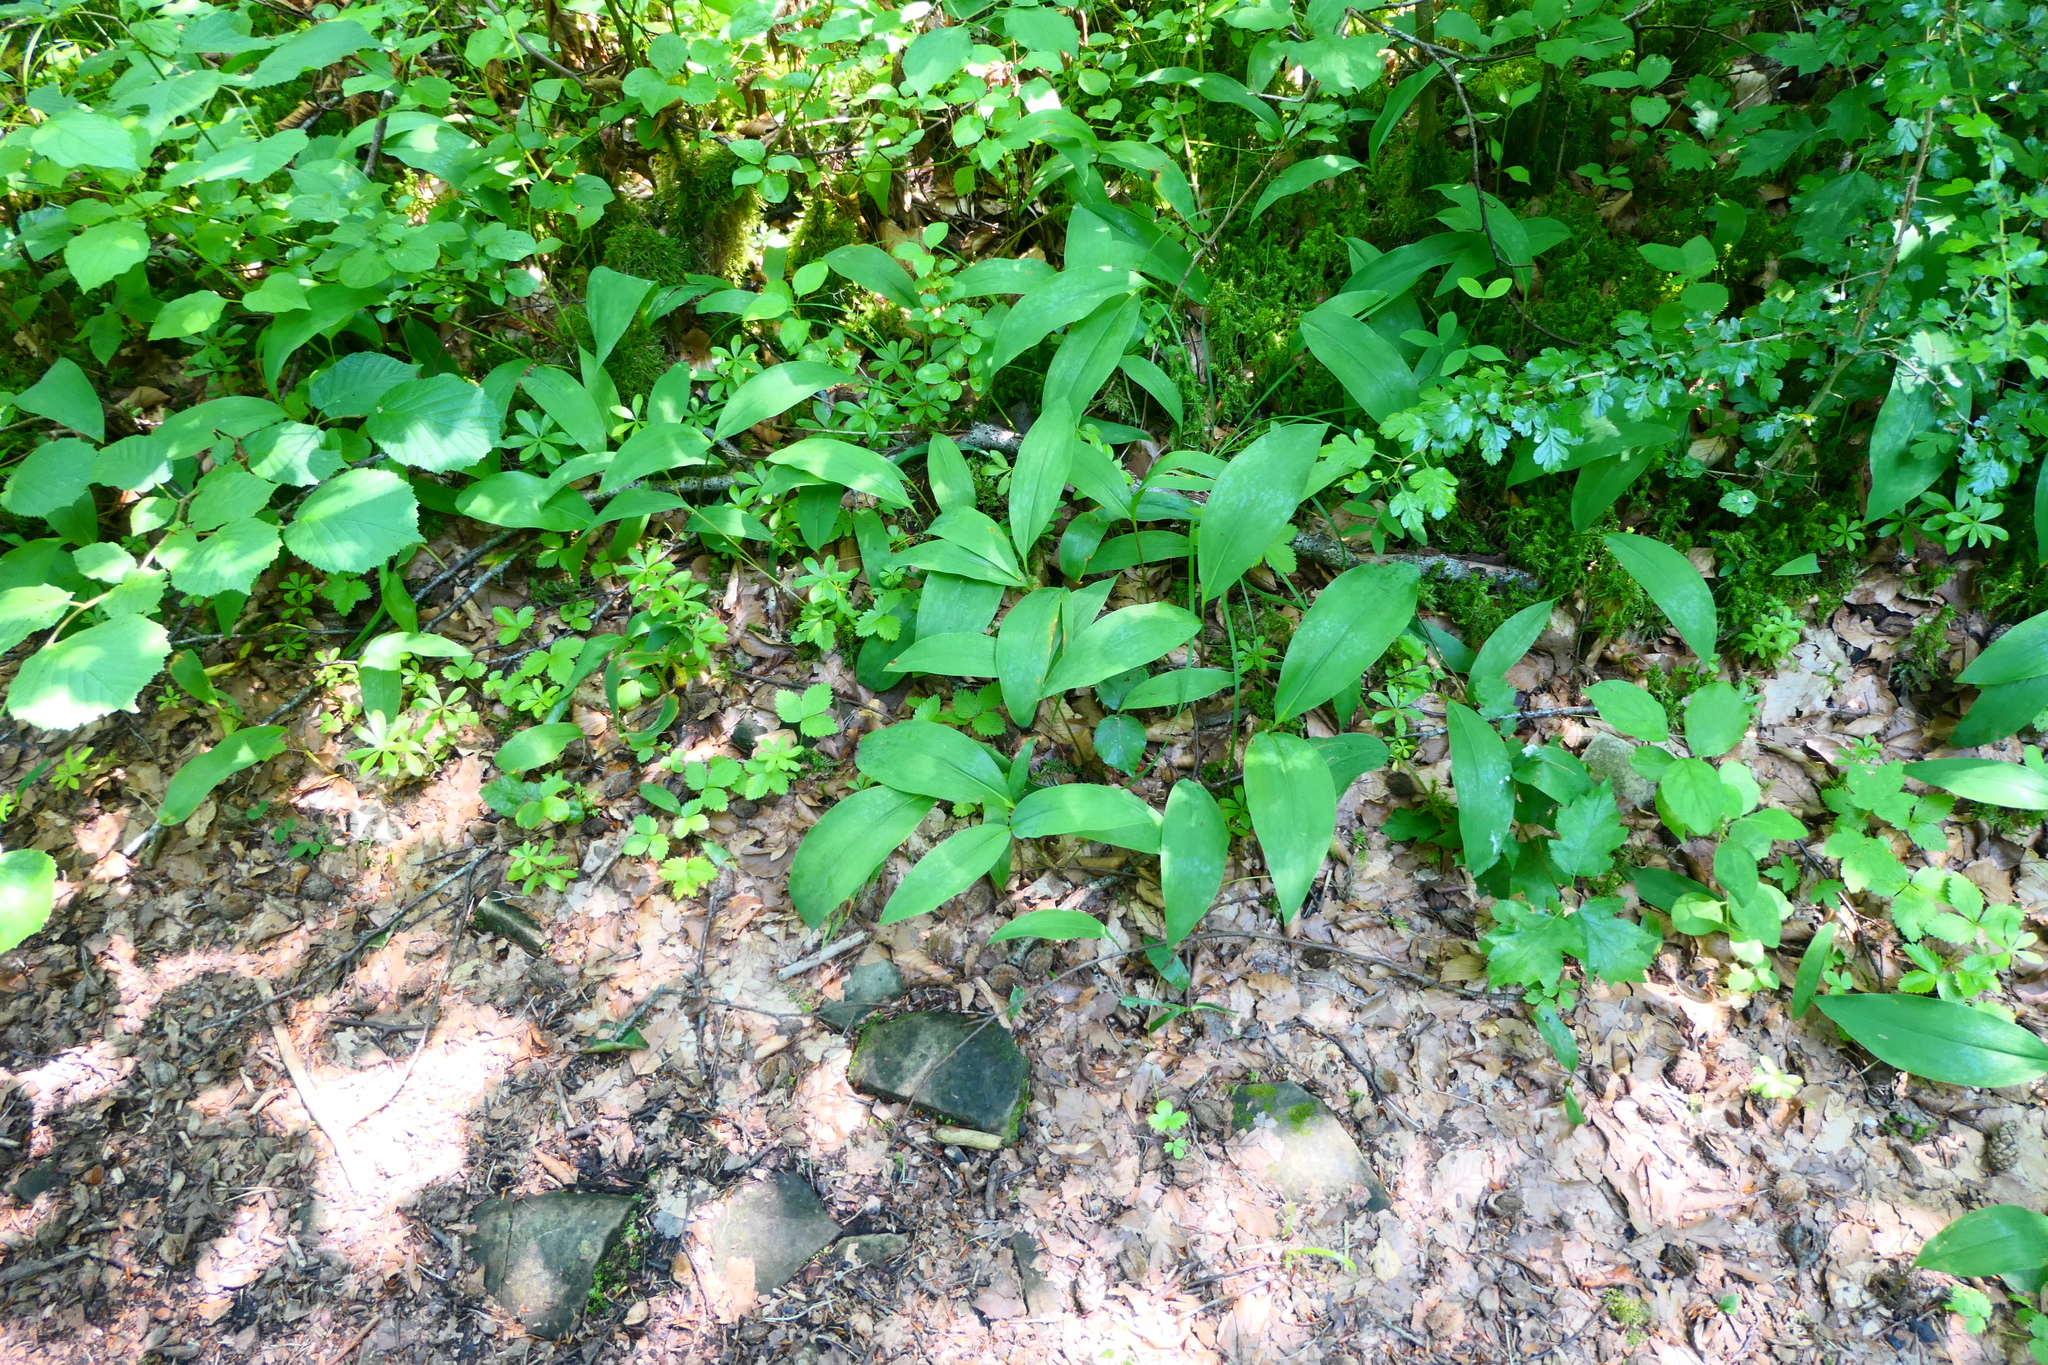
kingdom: Plantae
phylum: Tracheophyta
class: Liliopsida
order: Asparagales
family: Asparagaceae
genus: Convallaria
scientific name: Convallaria majalis
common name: Lily-of-the-valley
